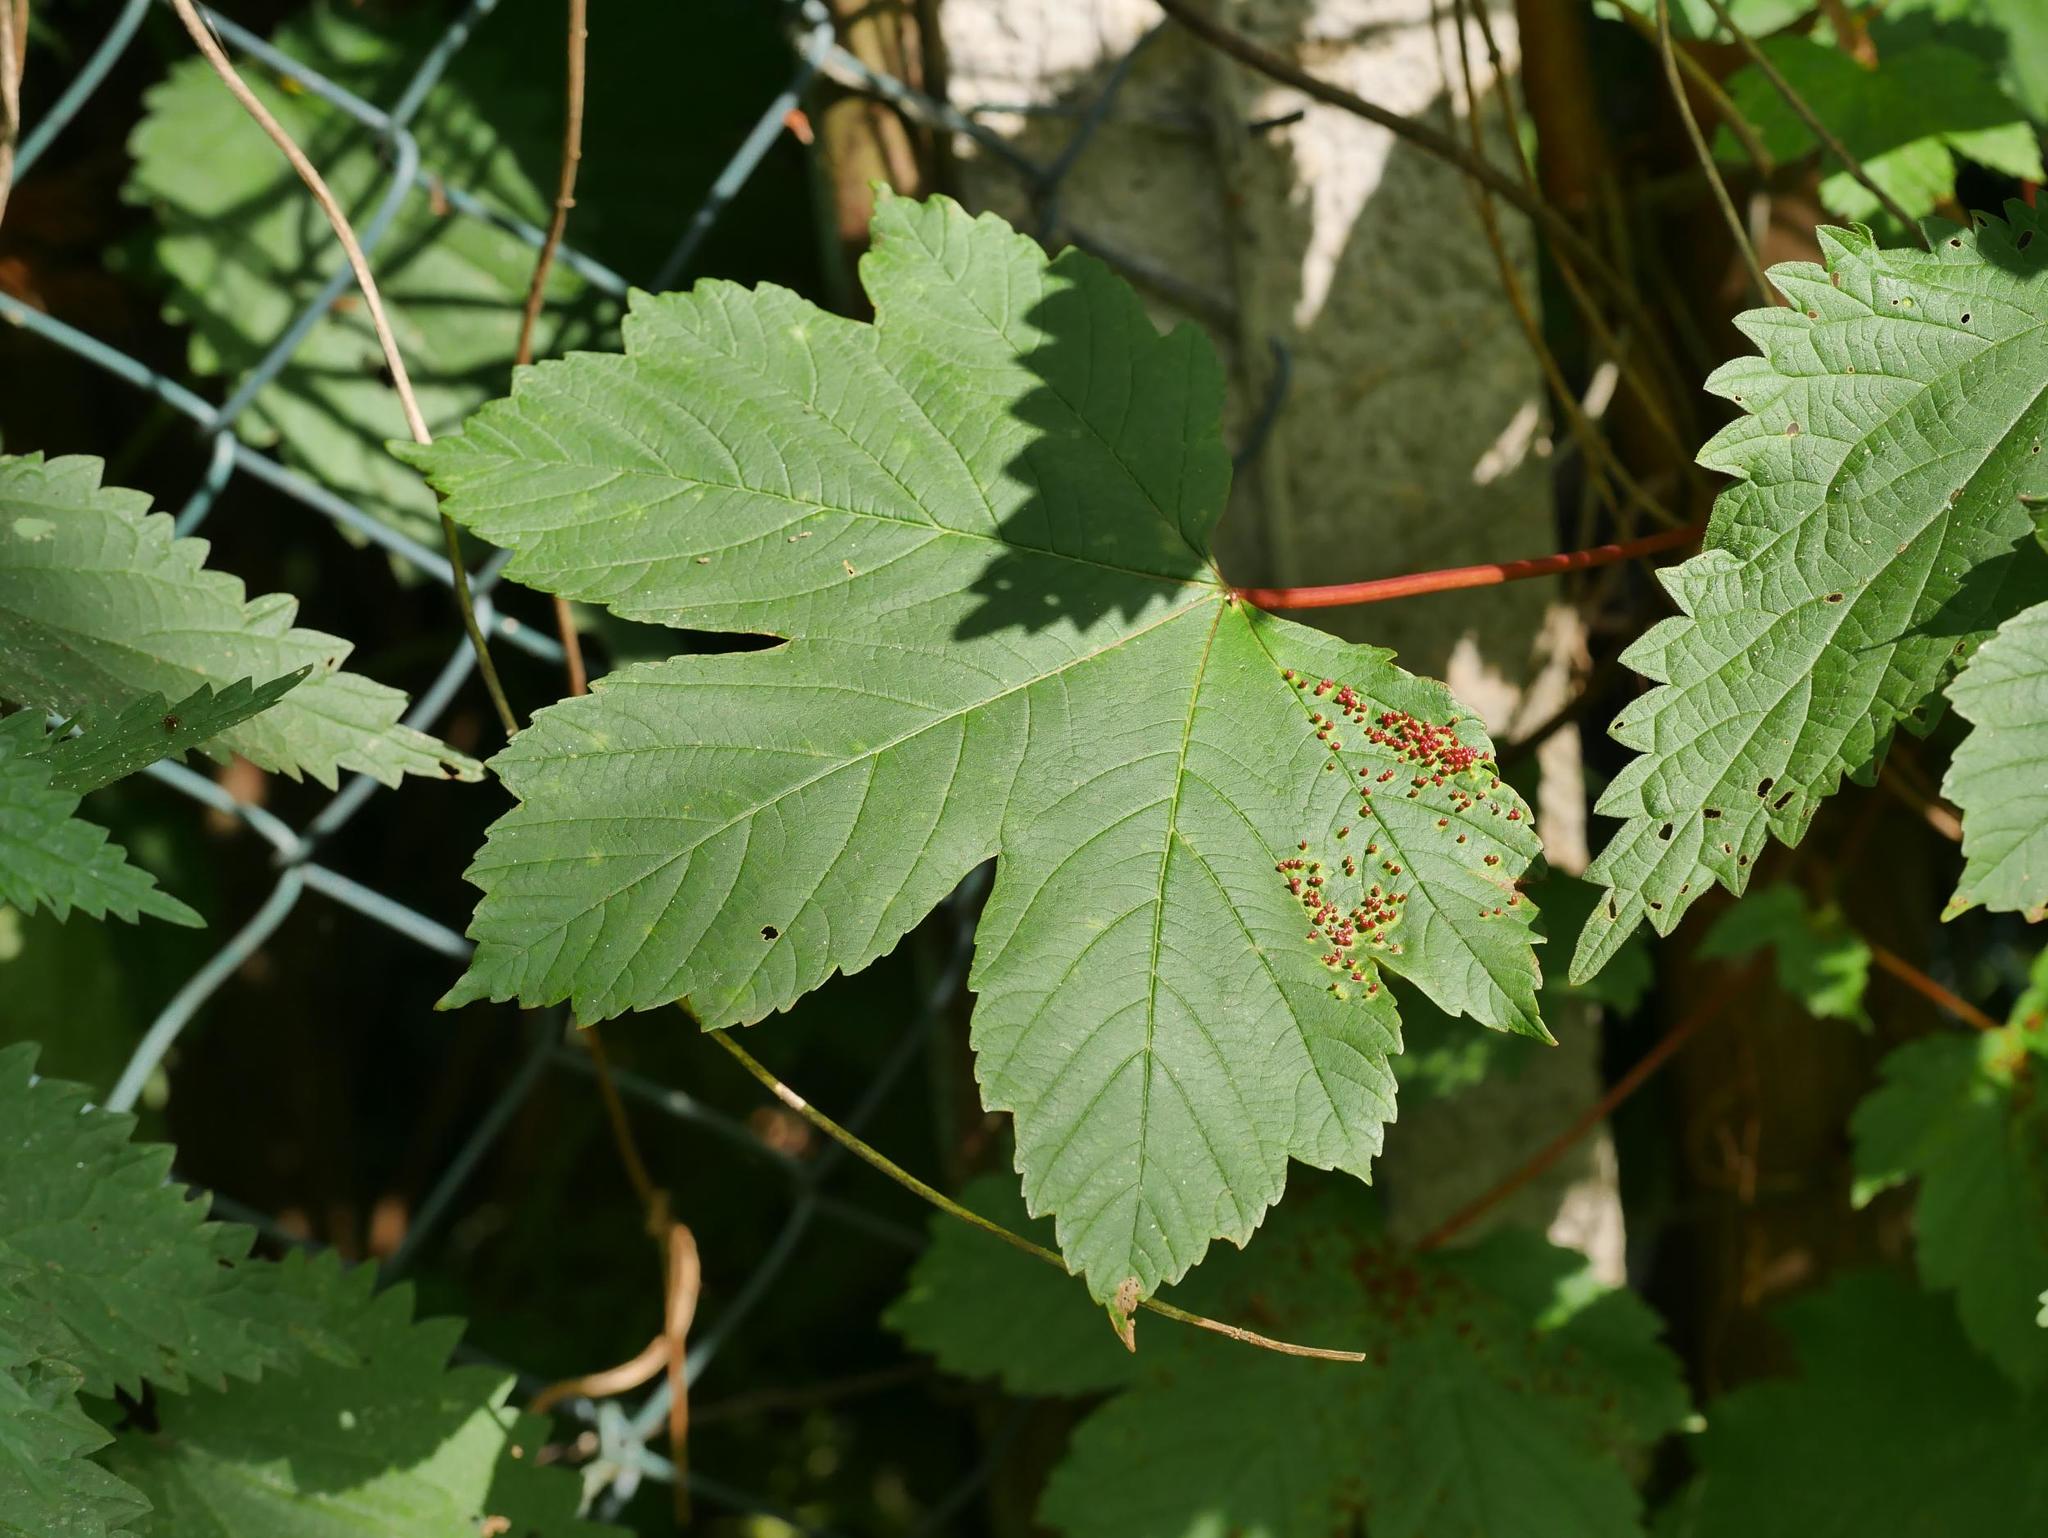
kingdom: Plantae
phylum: Tracheophyta
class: Magnoliopsida
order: Sapindales
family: Sapindaceae
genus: Acer
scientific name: Acer pseudoplatanus
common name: Sycamore
